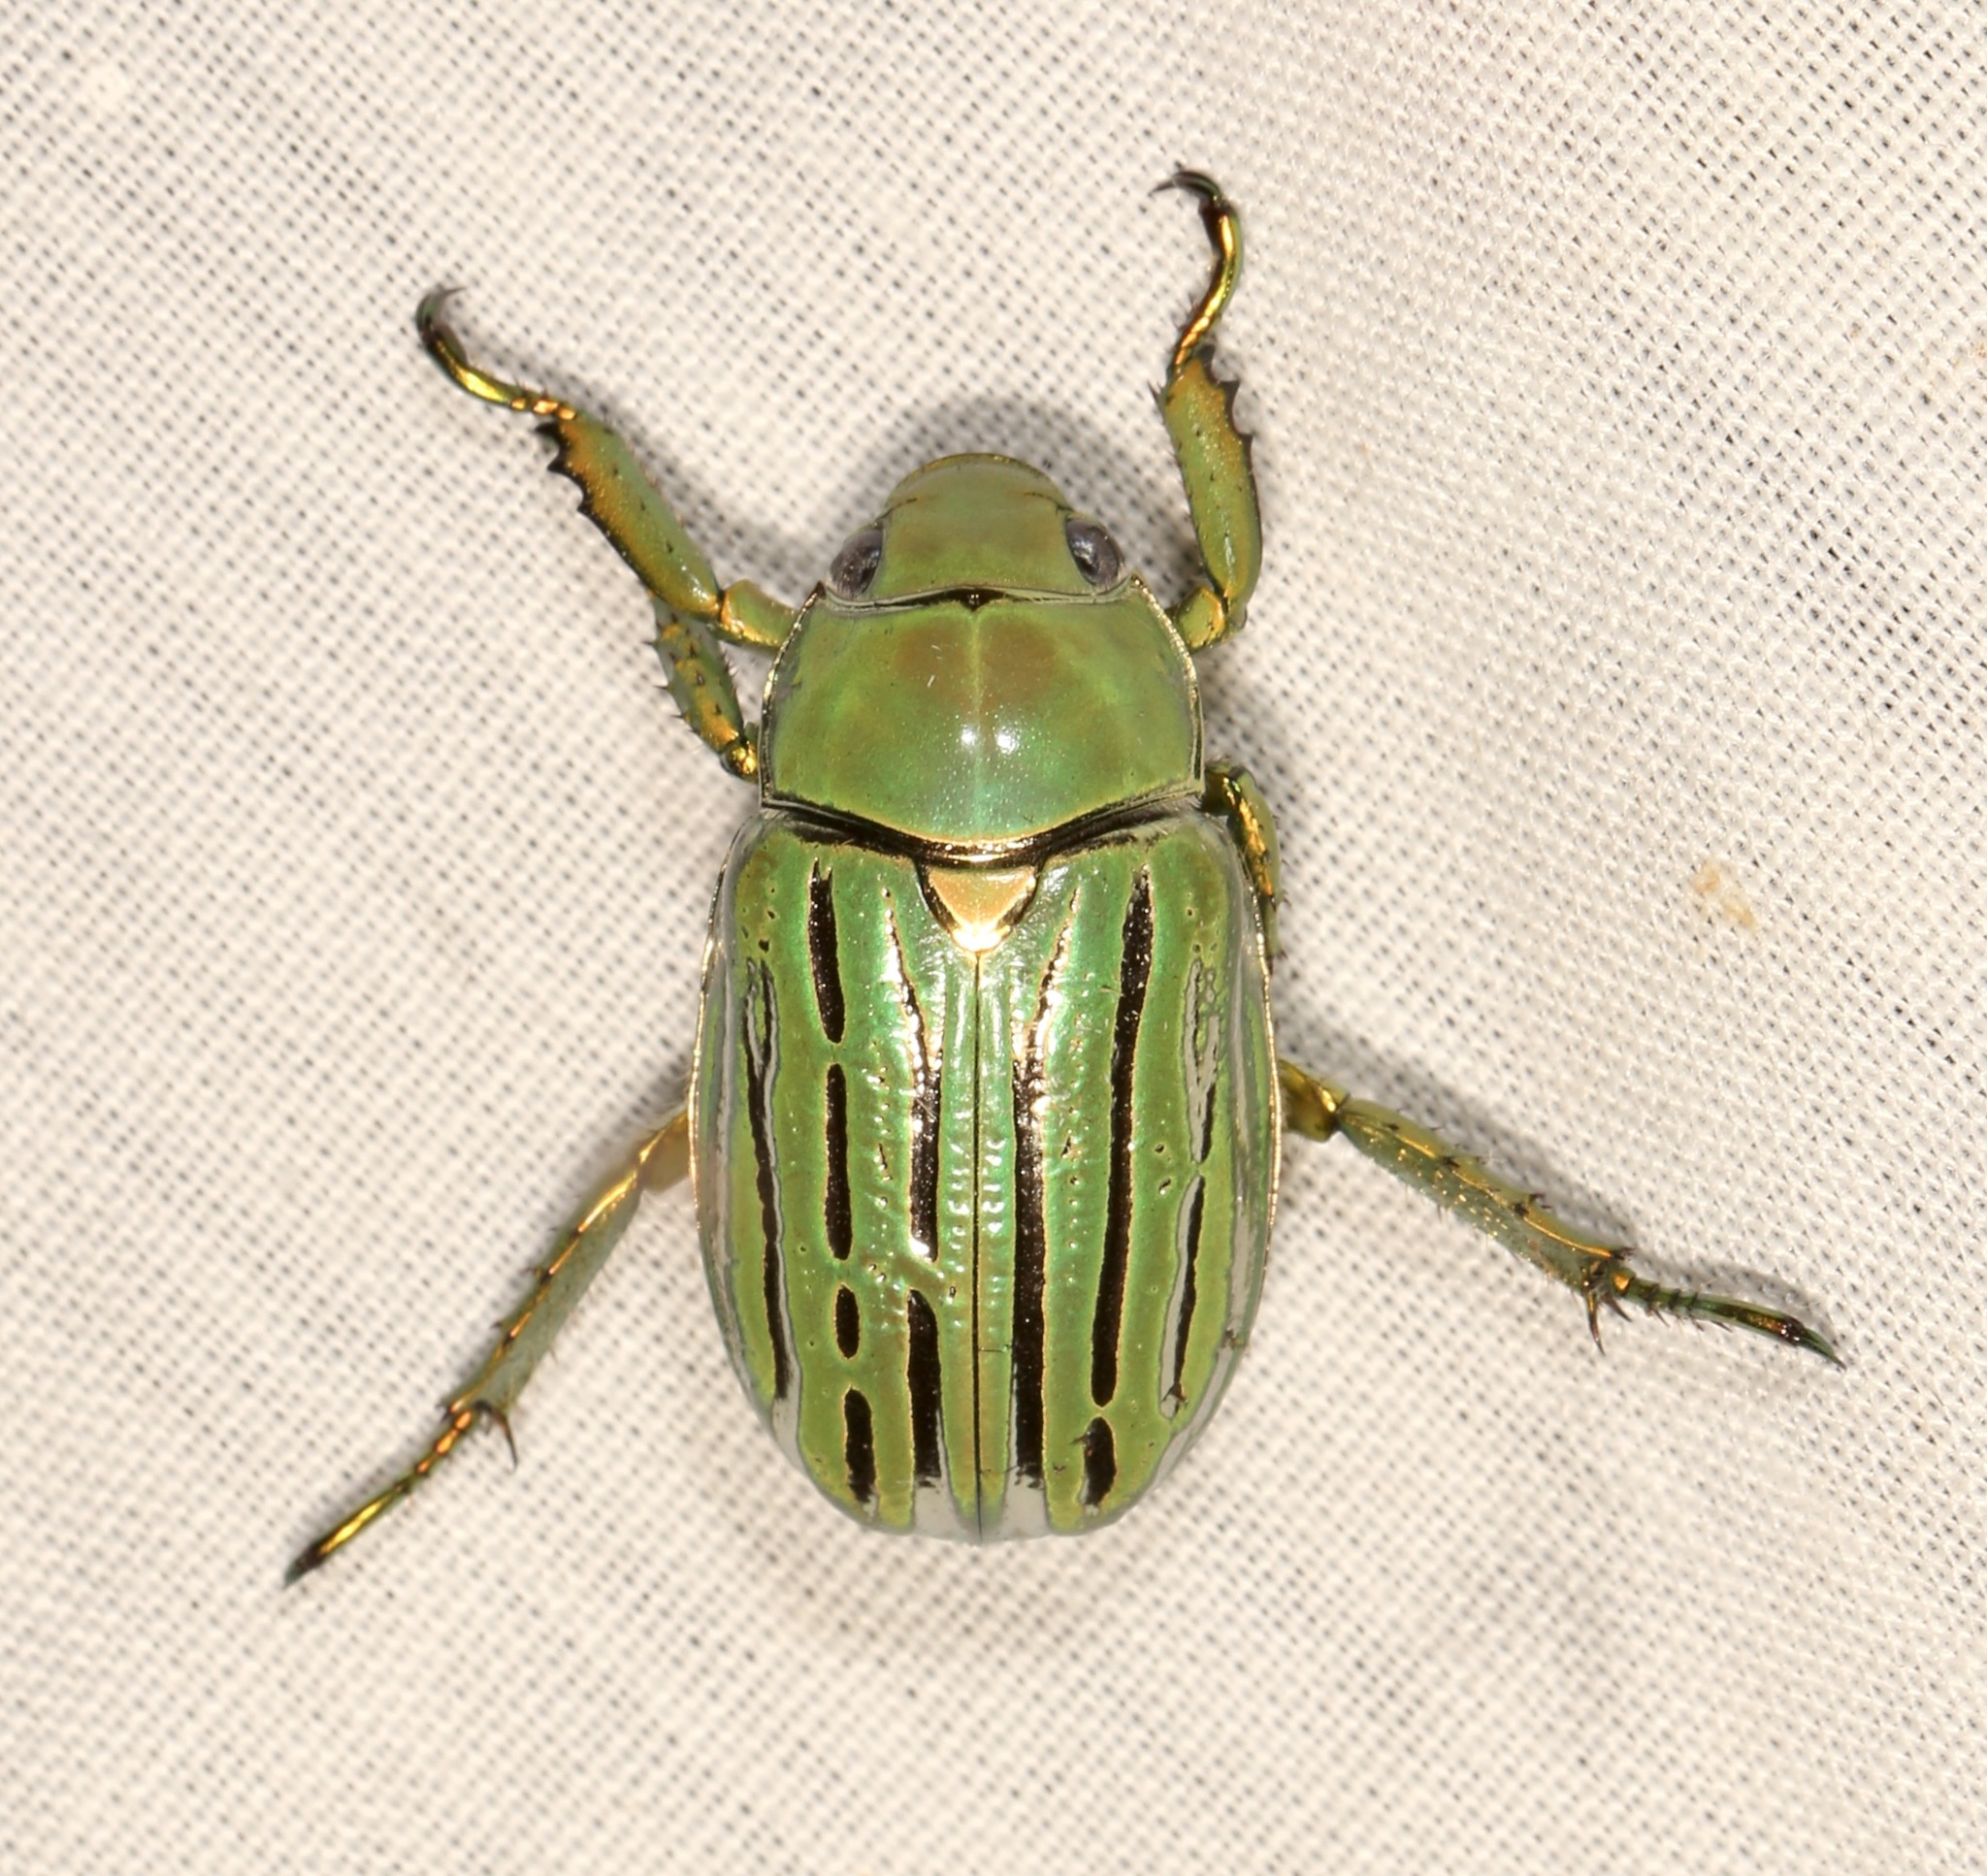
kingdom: Animalia
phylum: Arthropoda
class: Insecta
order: Coleoptera
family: Scarabaeidae
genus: Chrysina
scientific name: Chrysina gloriosa
